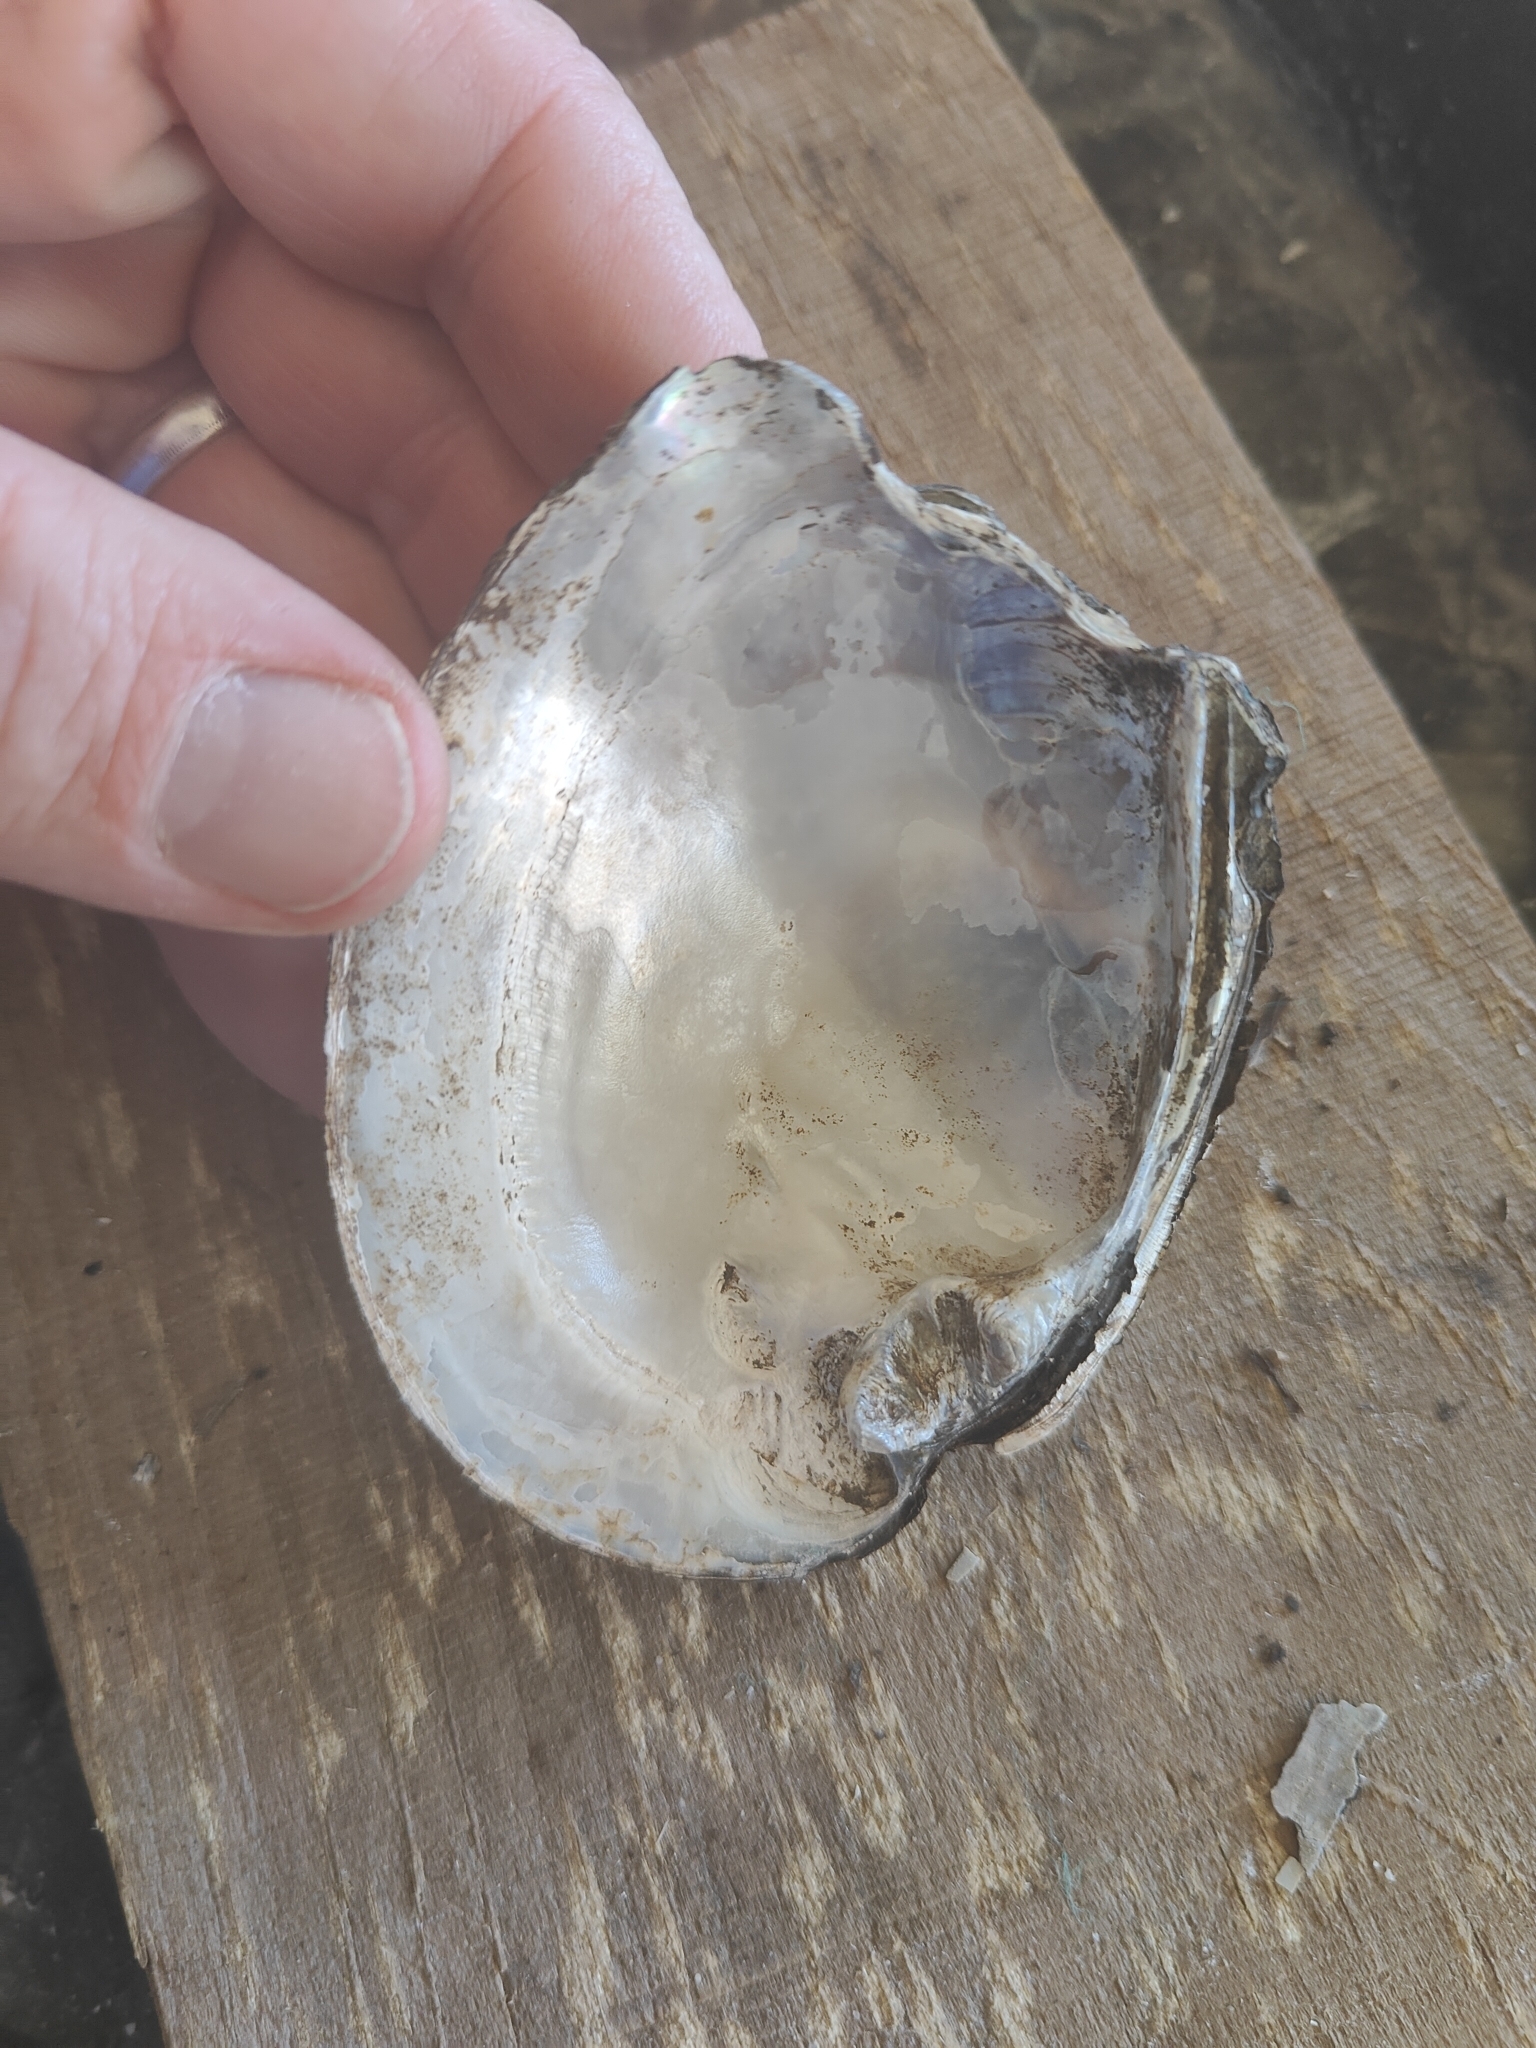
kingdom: Animalia
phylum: Mollusca
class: Bivalvia
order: Unionida
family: Unionidae
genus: Amblema
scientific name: Amblema plicata
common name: Threeridge
